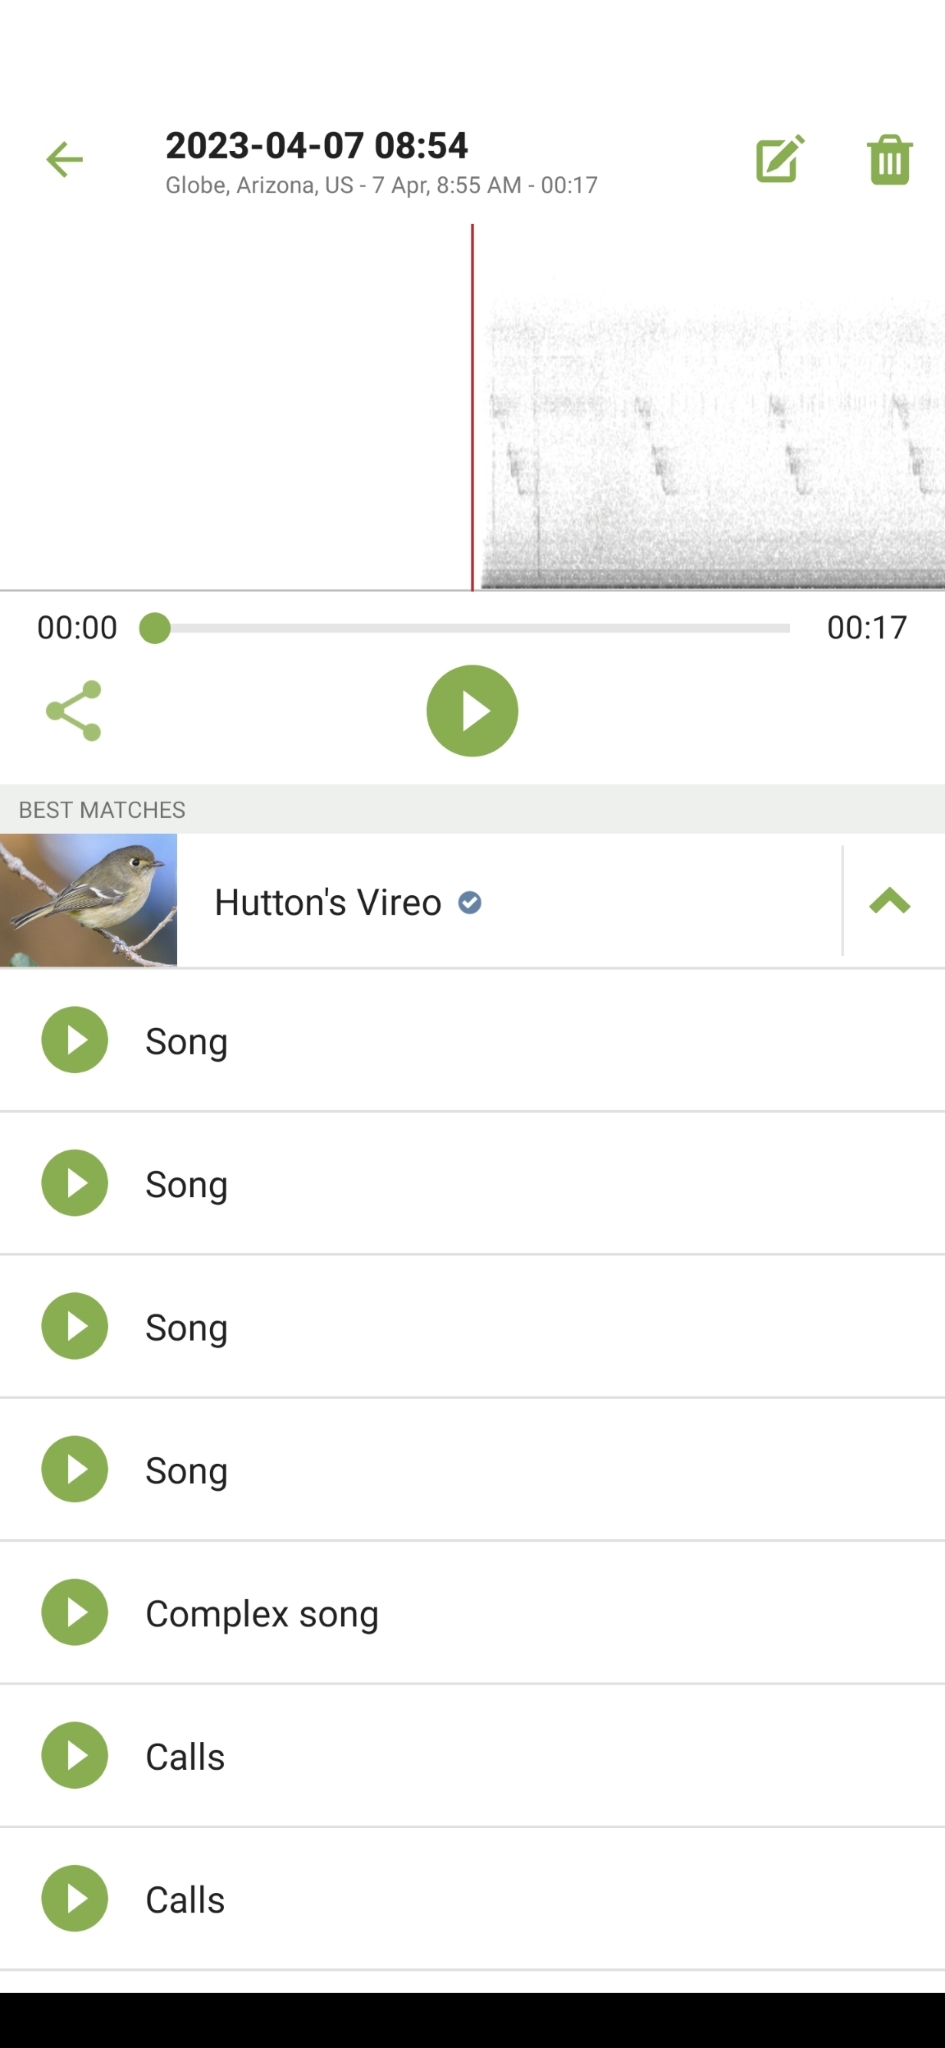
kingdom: Animalia
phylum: Chordata
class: Aves
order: Passeriformes
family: Vireonidae
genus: Vireo
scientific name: Vireo huttoni
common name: Hutton's vireo
